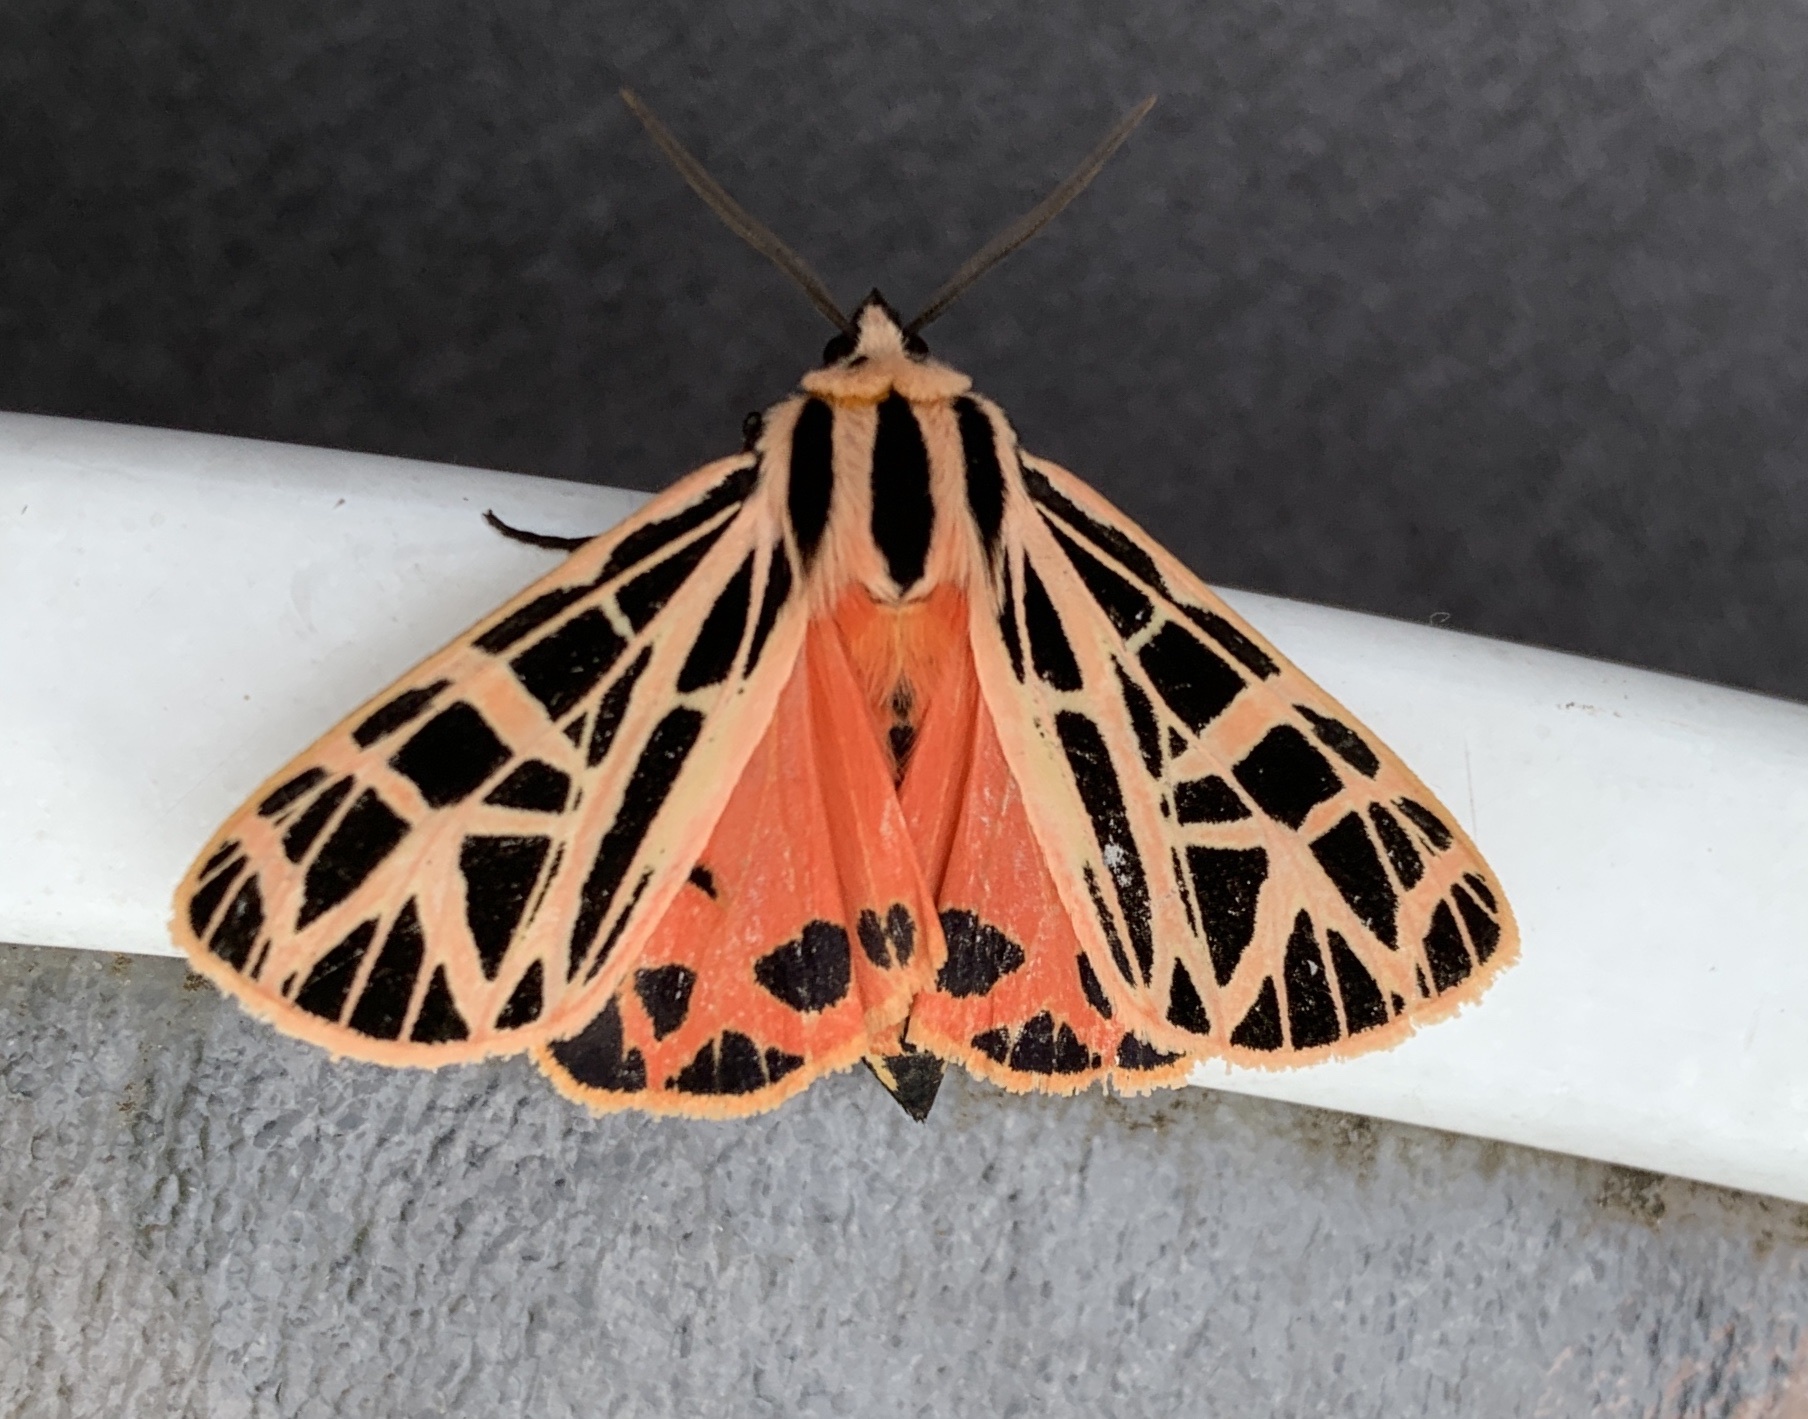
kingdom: Animalia
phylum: Arthropoda
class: Insecta
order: Lepidoptera
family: Erebidae
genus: Grammia
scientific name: Grammia parthenice
